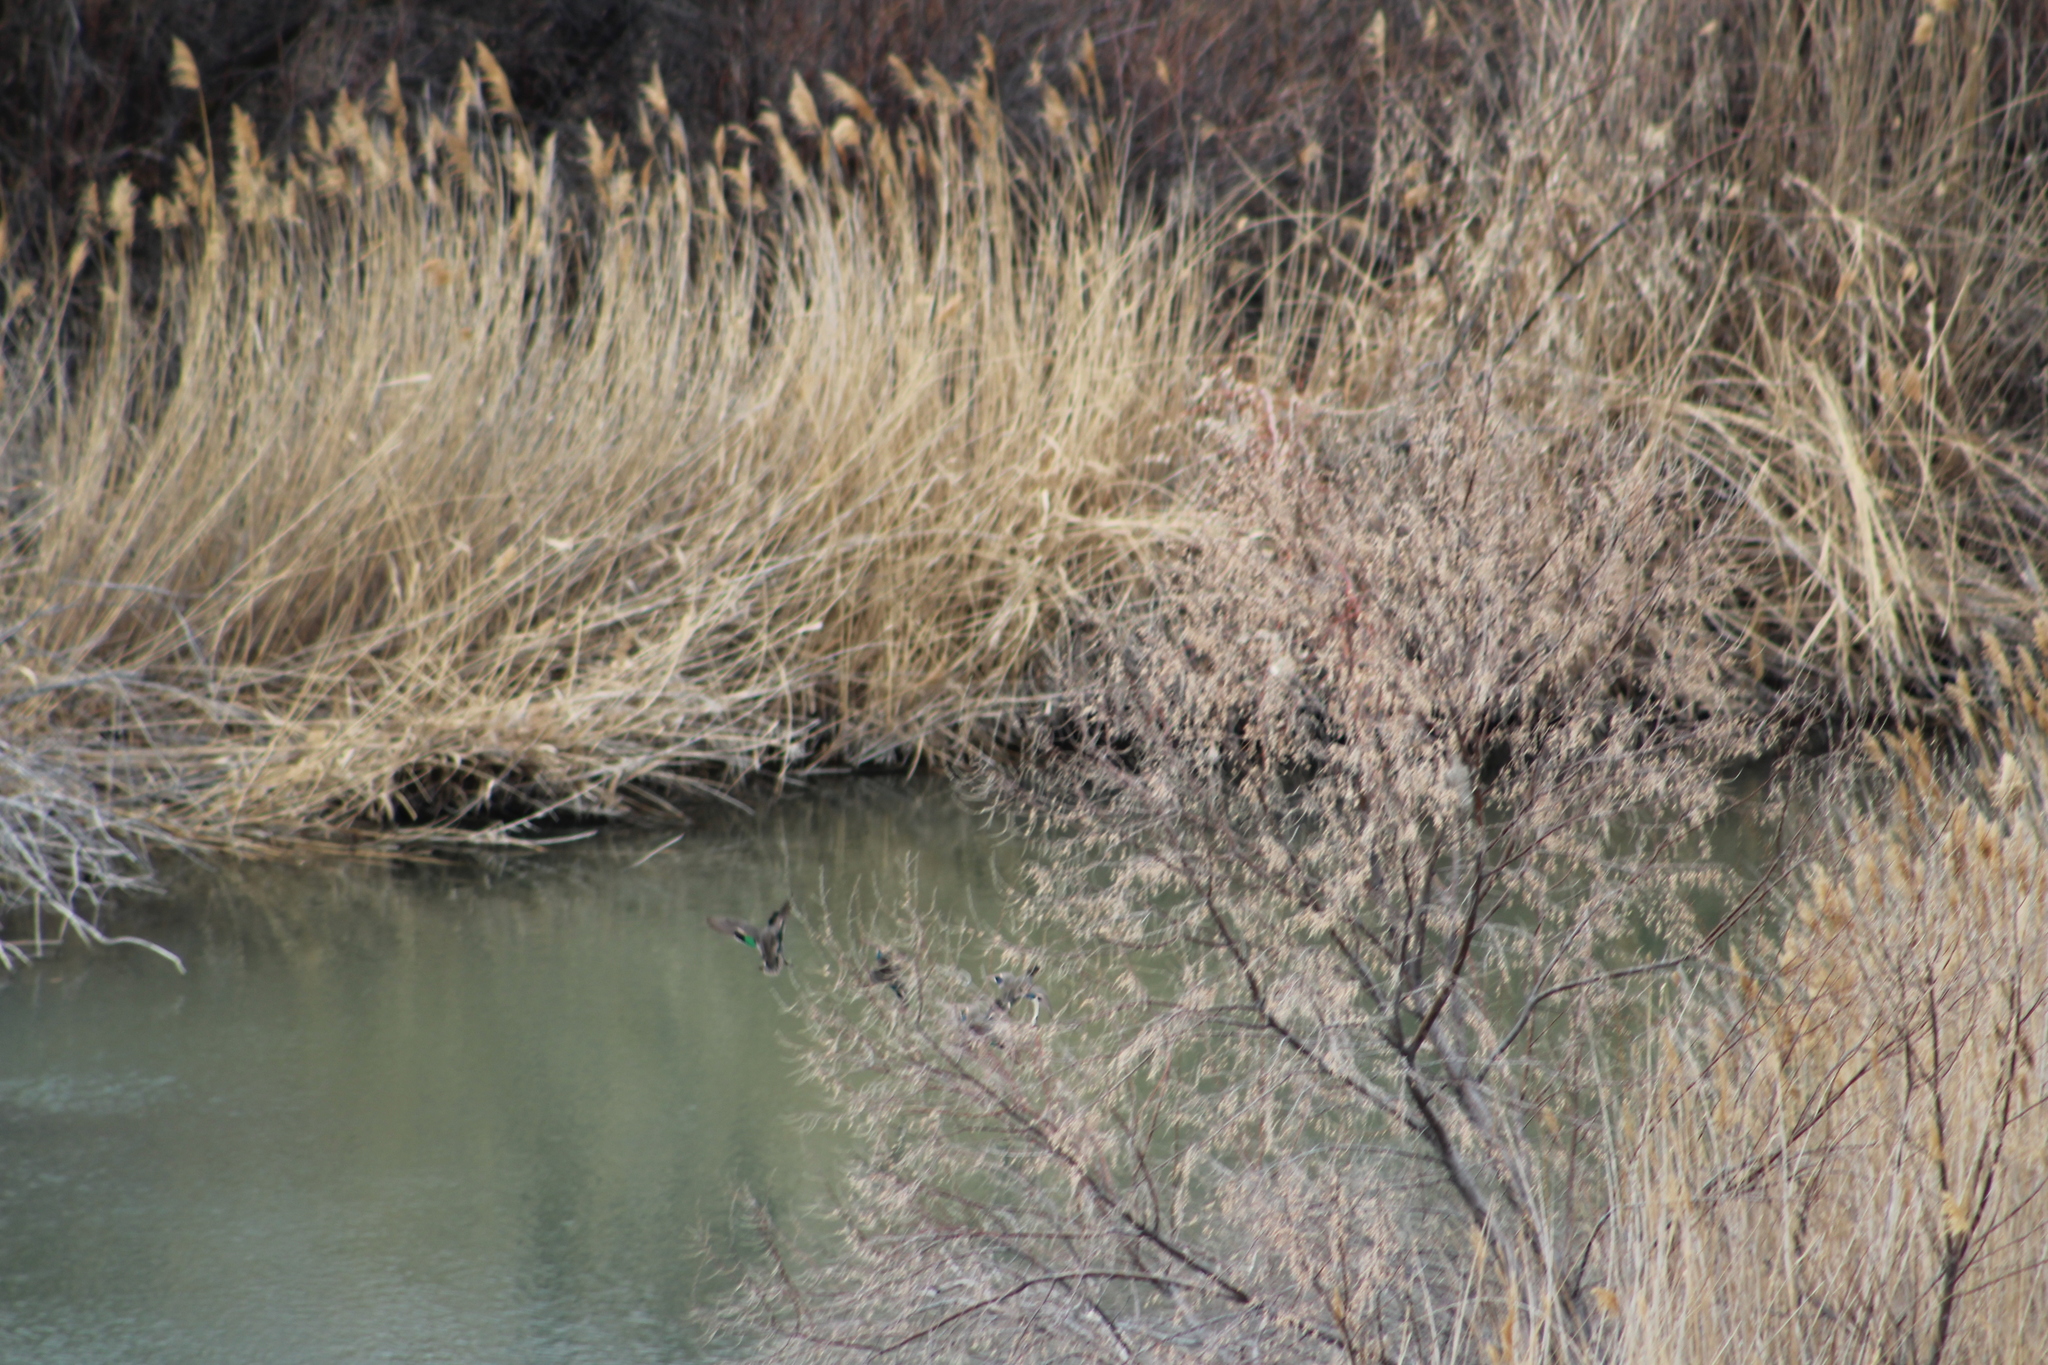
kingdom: Animalia
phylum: Chordata
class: Aves
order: Anseriformes
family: Anatidae
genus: Anas
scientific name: Anas crecca
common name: Eurasian teal
